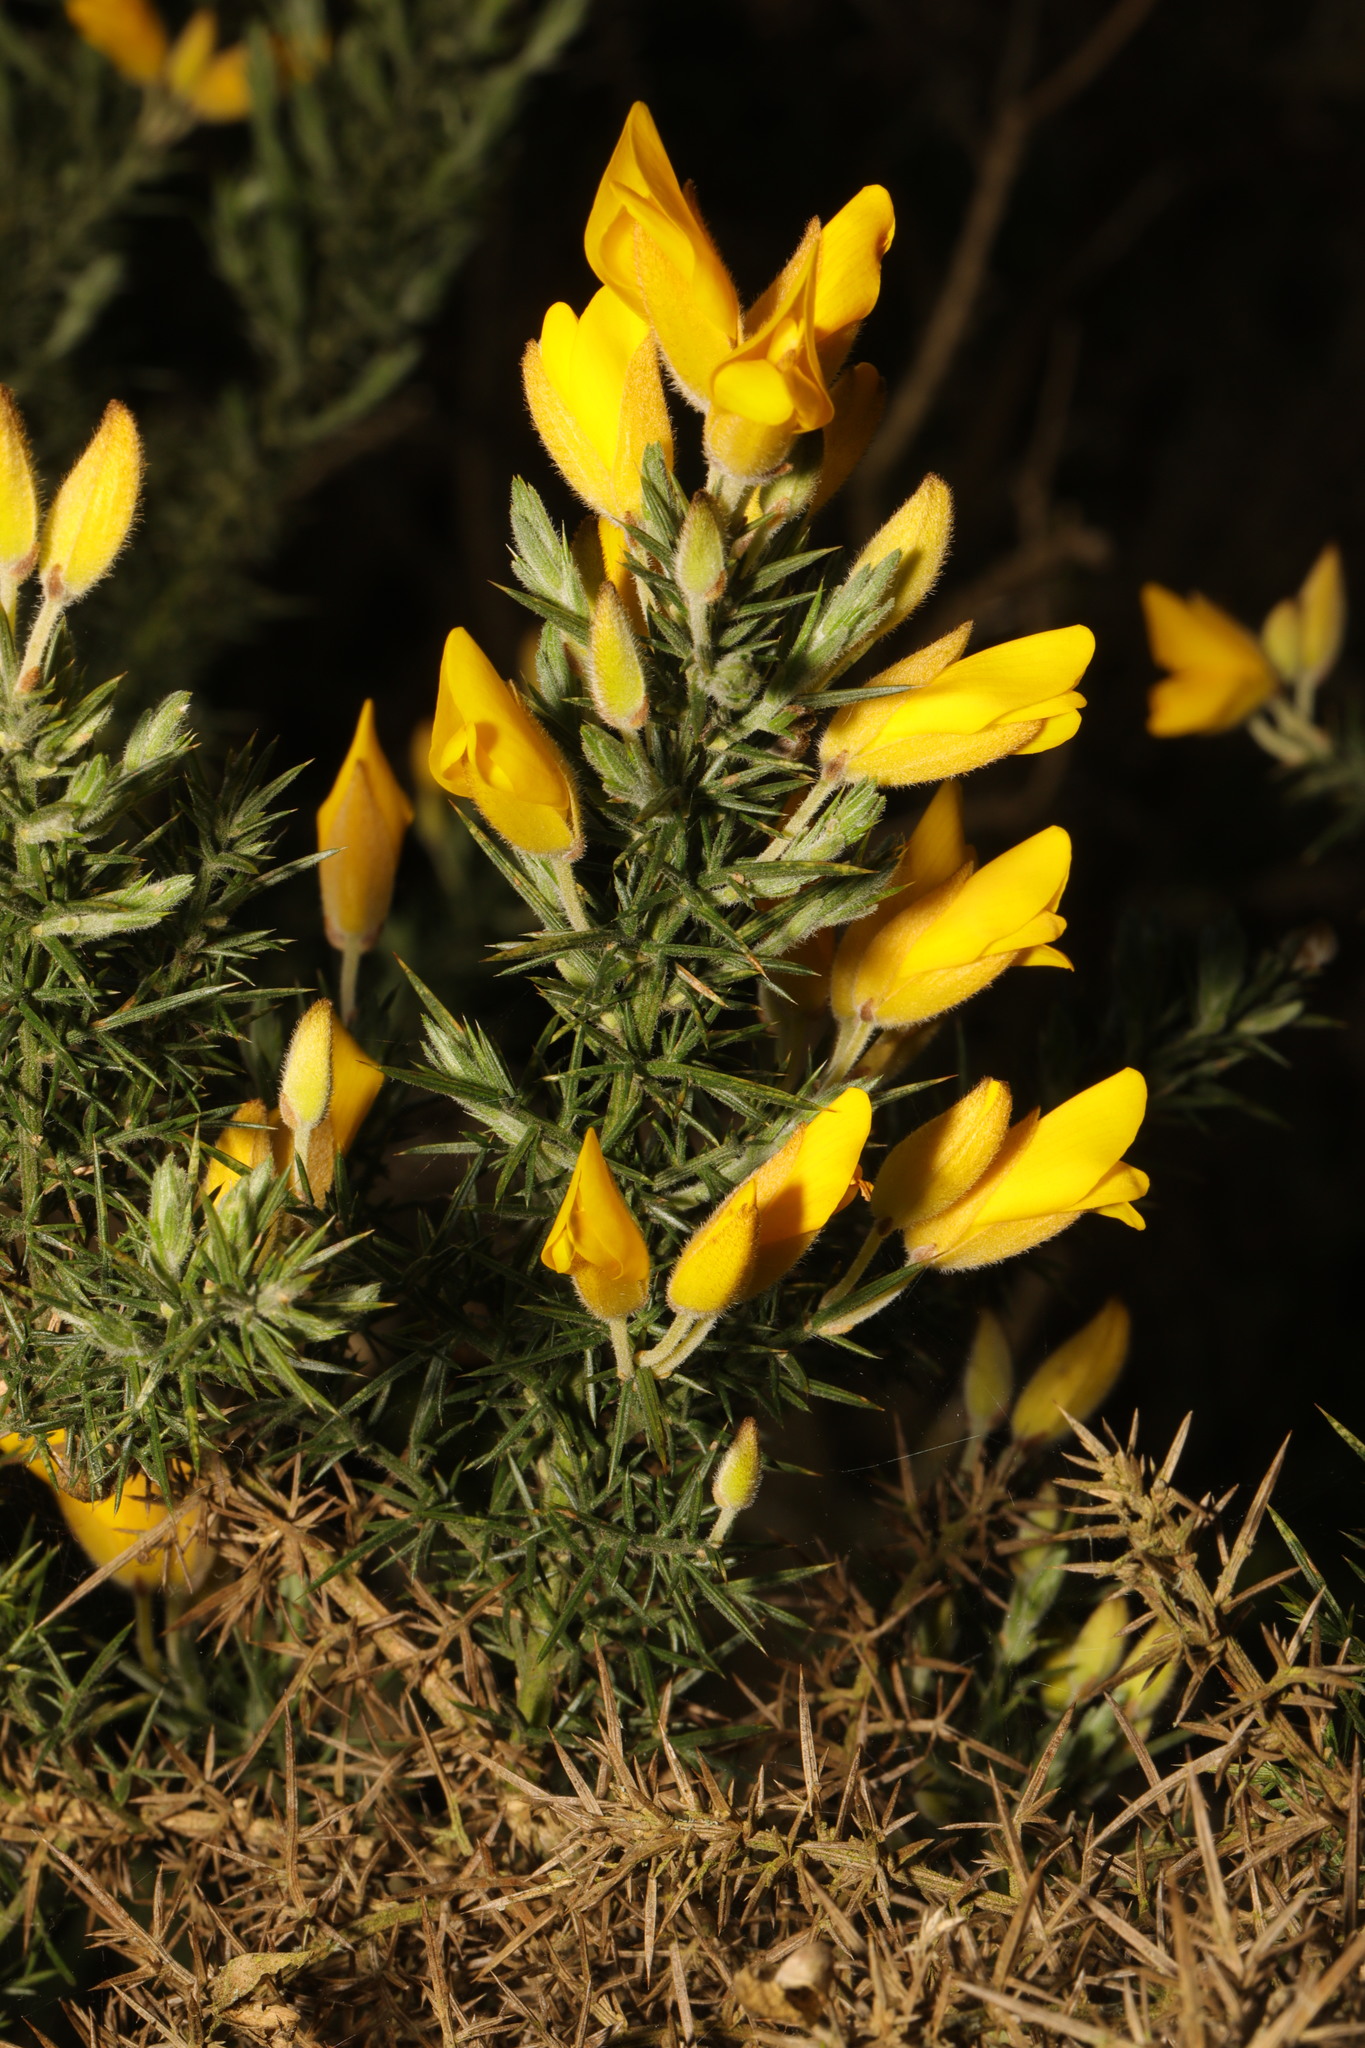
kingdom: Plantae
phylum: Tracheophyta
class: Magnoliopsida
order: Fabales
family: Fabaceae
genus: Ulex
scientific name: Ulex europaeus
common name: Common gorse
